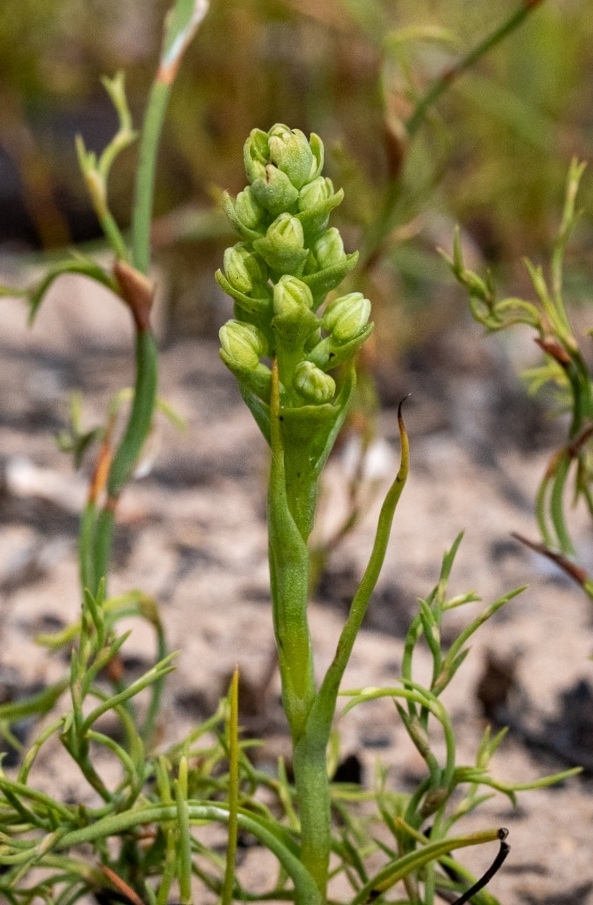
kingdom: Plantae
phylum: Tracheophyta
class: Liliopsida
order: Asparagales
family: Orchidaceae
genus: Corycium
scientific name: Corycium excisum
